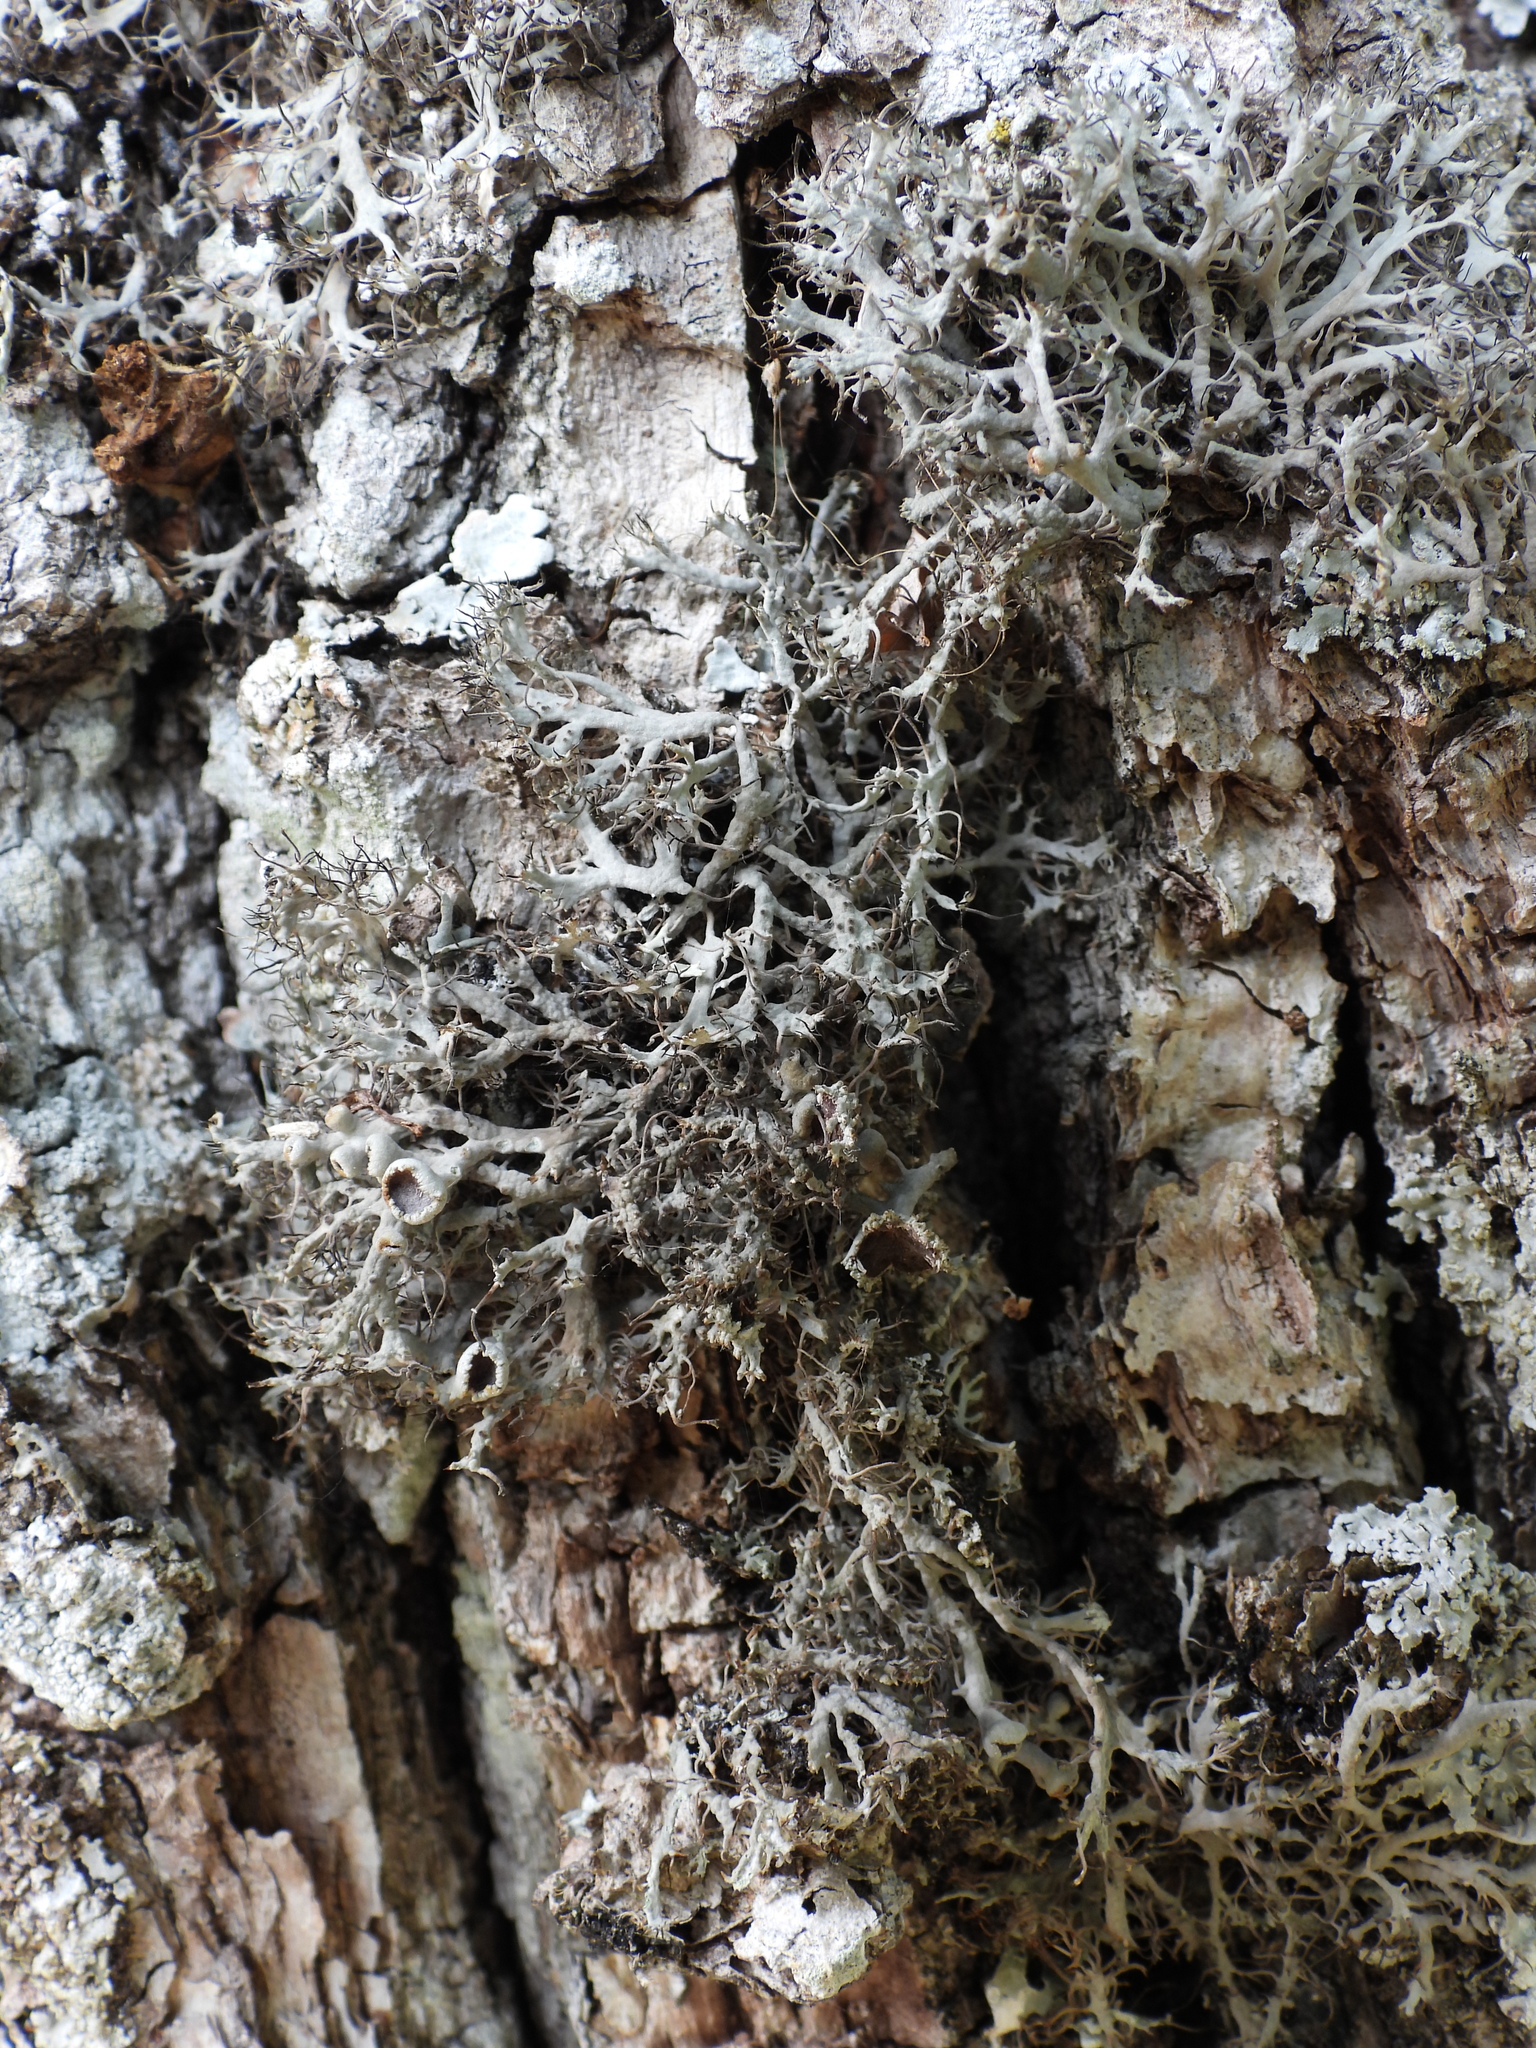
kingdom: Fungi
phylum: Ascomycota
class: Lecanoromycetes
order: Caliciales
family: Physciaceae
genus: Anaptychia
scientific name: Anaptychia ciliaris
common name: Great ciliated lichen
